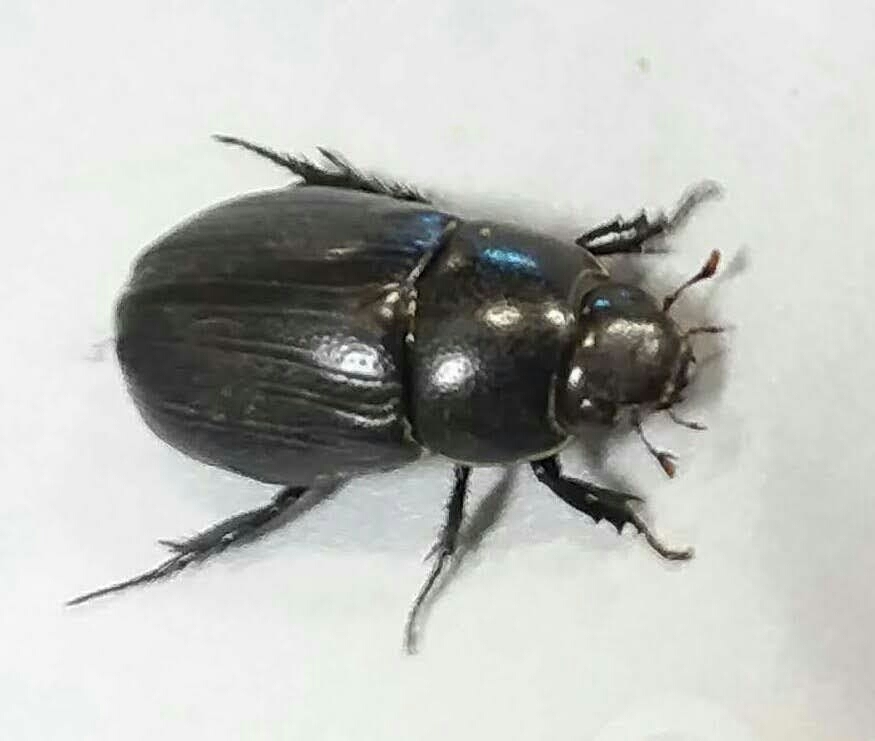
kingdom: Animalia
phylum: Arthropoda
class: Insecta
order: Coleoptera
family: Scarabaeidae
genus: Dyscinetus
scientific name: Dyscinetus morator
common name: Rice beetle
